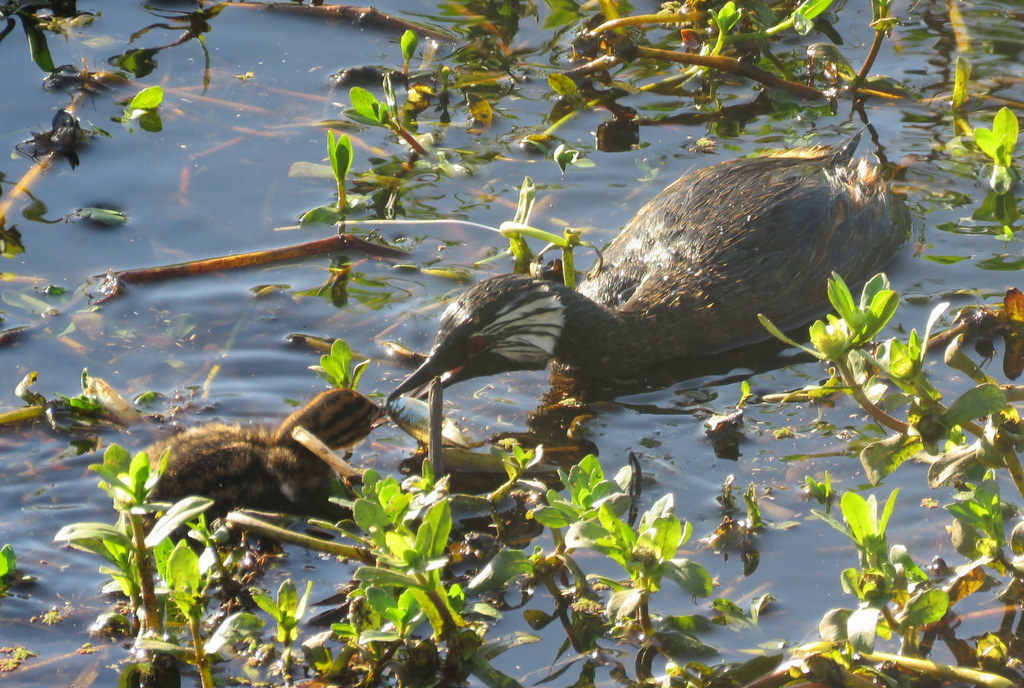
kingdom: Animalia
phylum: Chordata
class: Aves
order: Podicipediformes
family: Podicipedidae
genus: Rollandia
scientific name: Rollandia rolland
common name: White-tufted grebe
